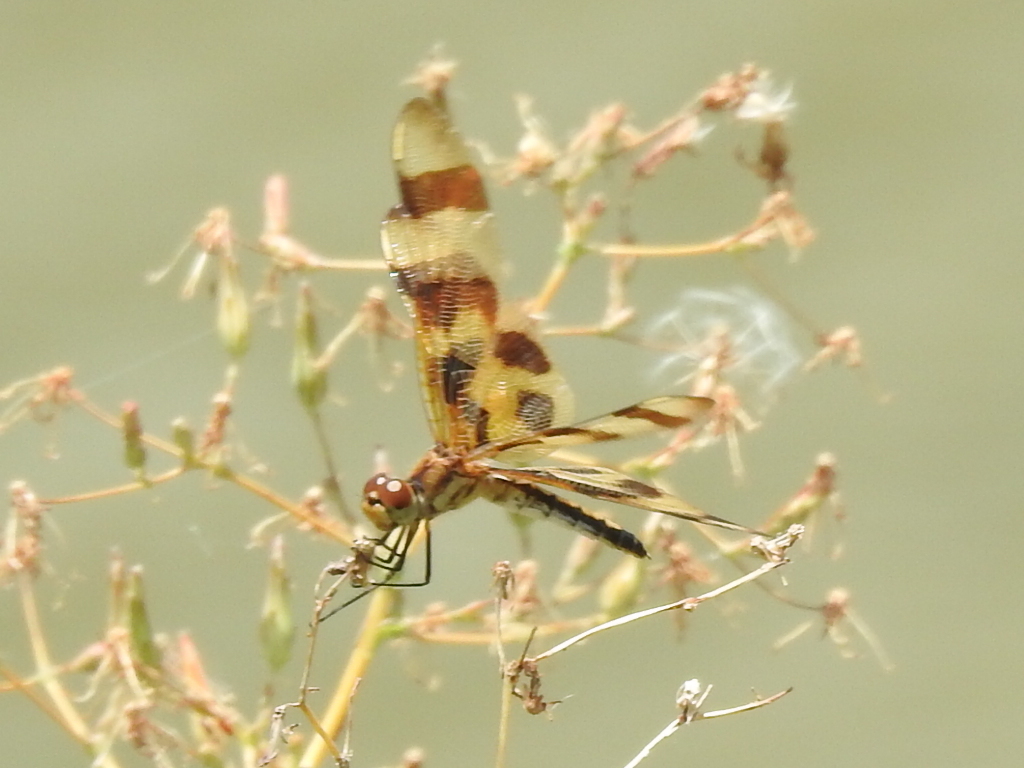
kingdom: Animalia
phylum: Arthropoda
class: Insecta
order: Odonata
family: Libellulidae
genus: Celithemis
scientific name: Celithemis eponina
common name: Halloween pennant
